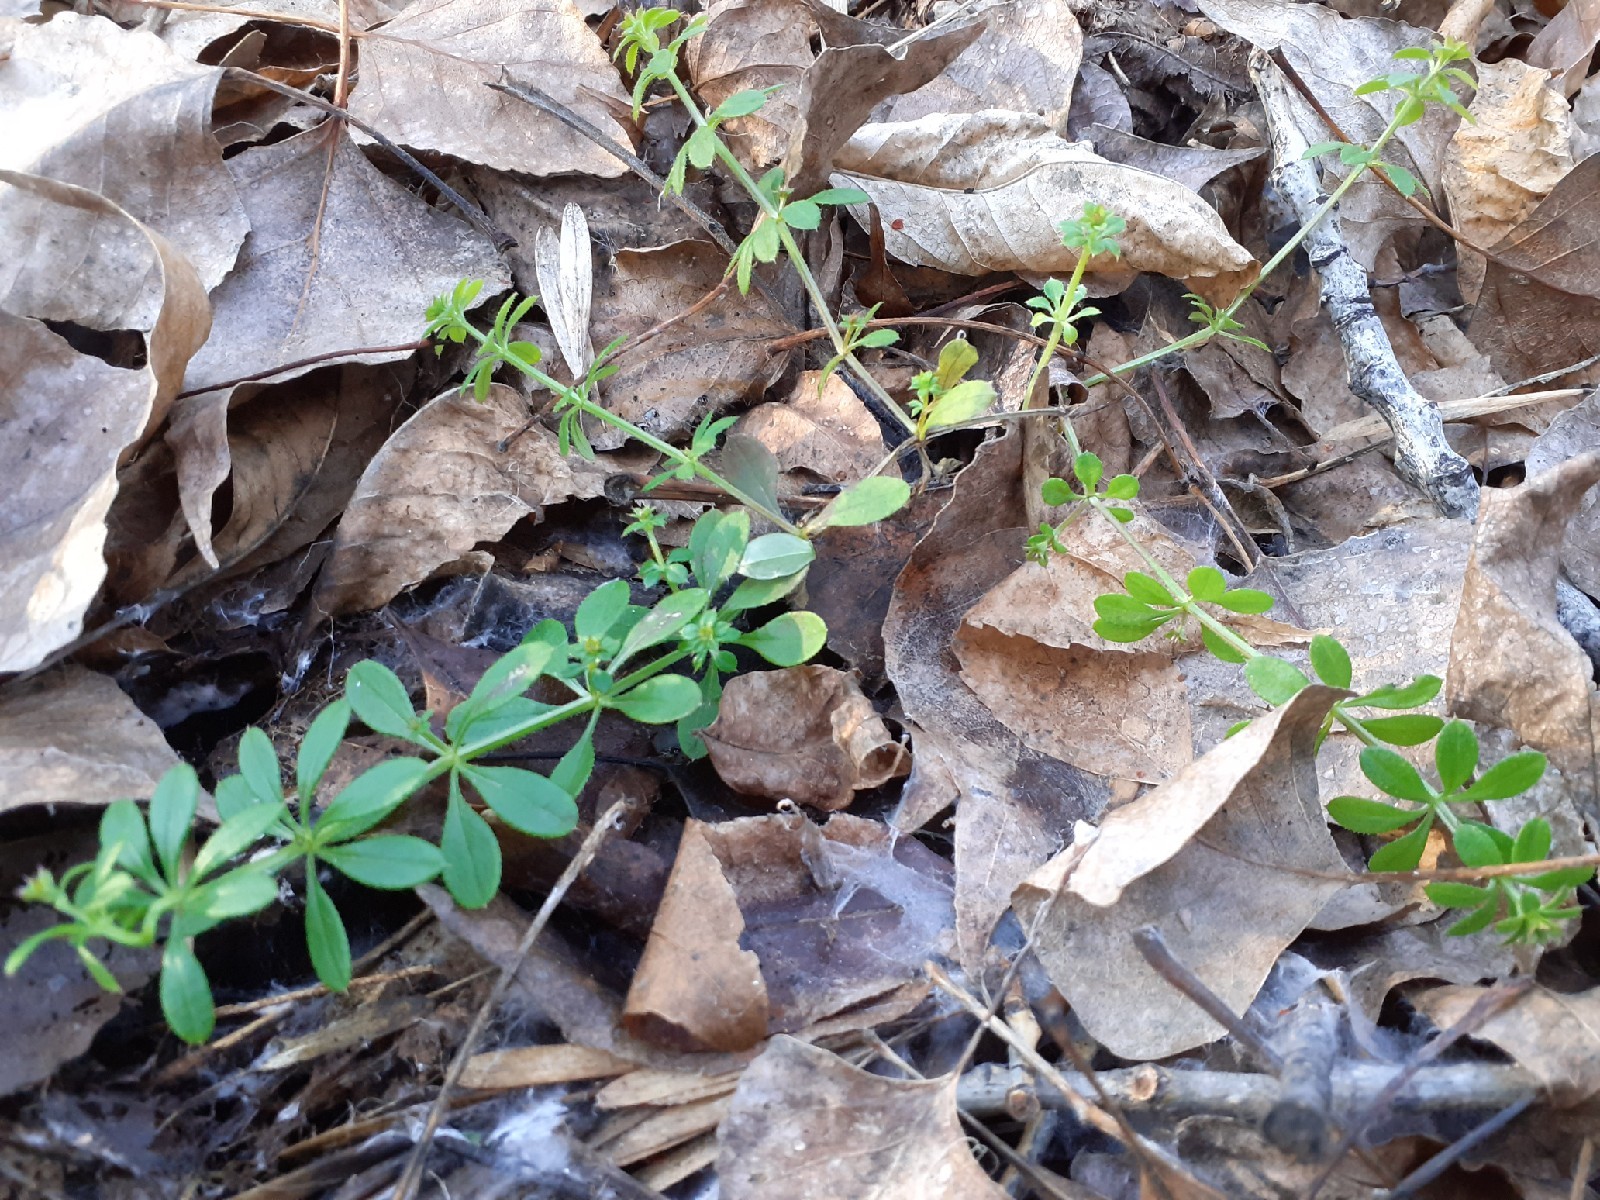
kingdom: Plantae
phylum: Tracheophyta
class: Magnoliopsida
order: Gentianales
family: Rubiaceae
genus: Galium
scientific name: Galium aparine
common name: Cleavers
